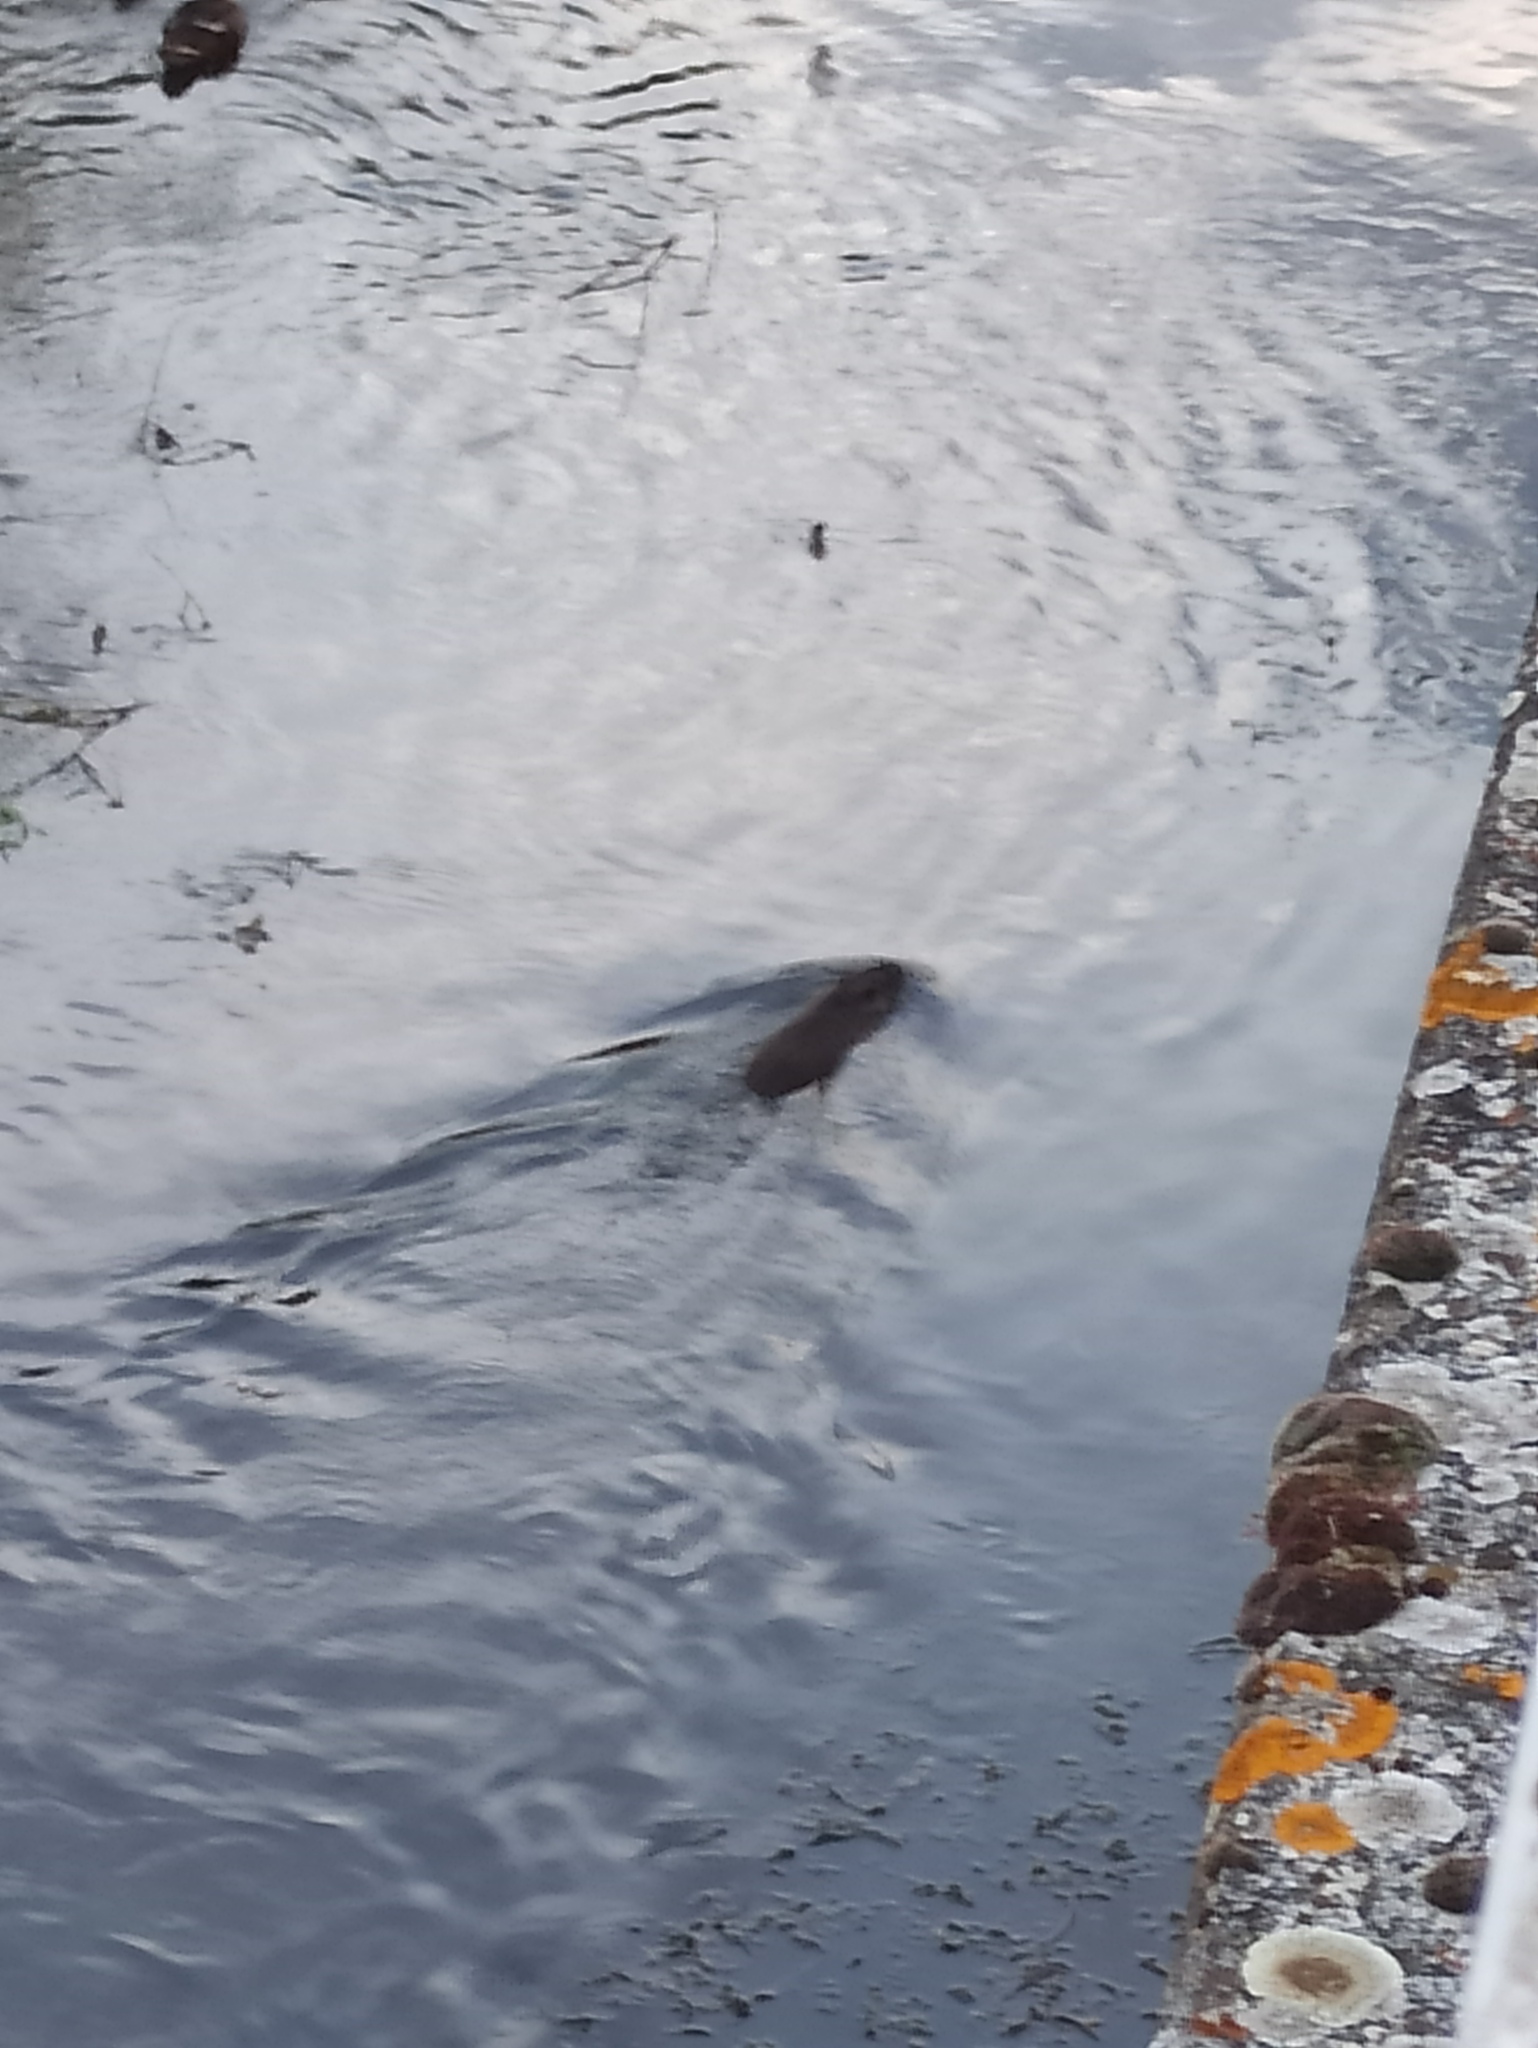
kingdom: Animalia
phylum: Chordata
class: Mammalia
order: Rodentia
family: Myocastoridae
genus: Myocastor
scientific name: Myocastor coypus
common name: Coypu
